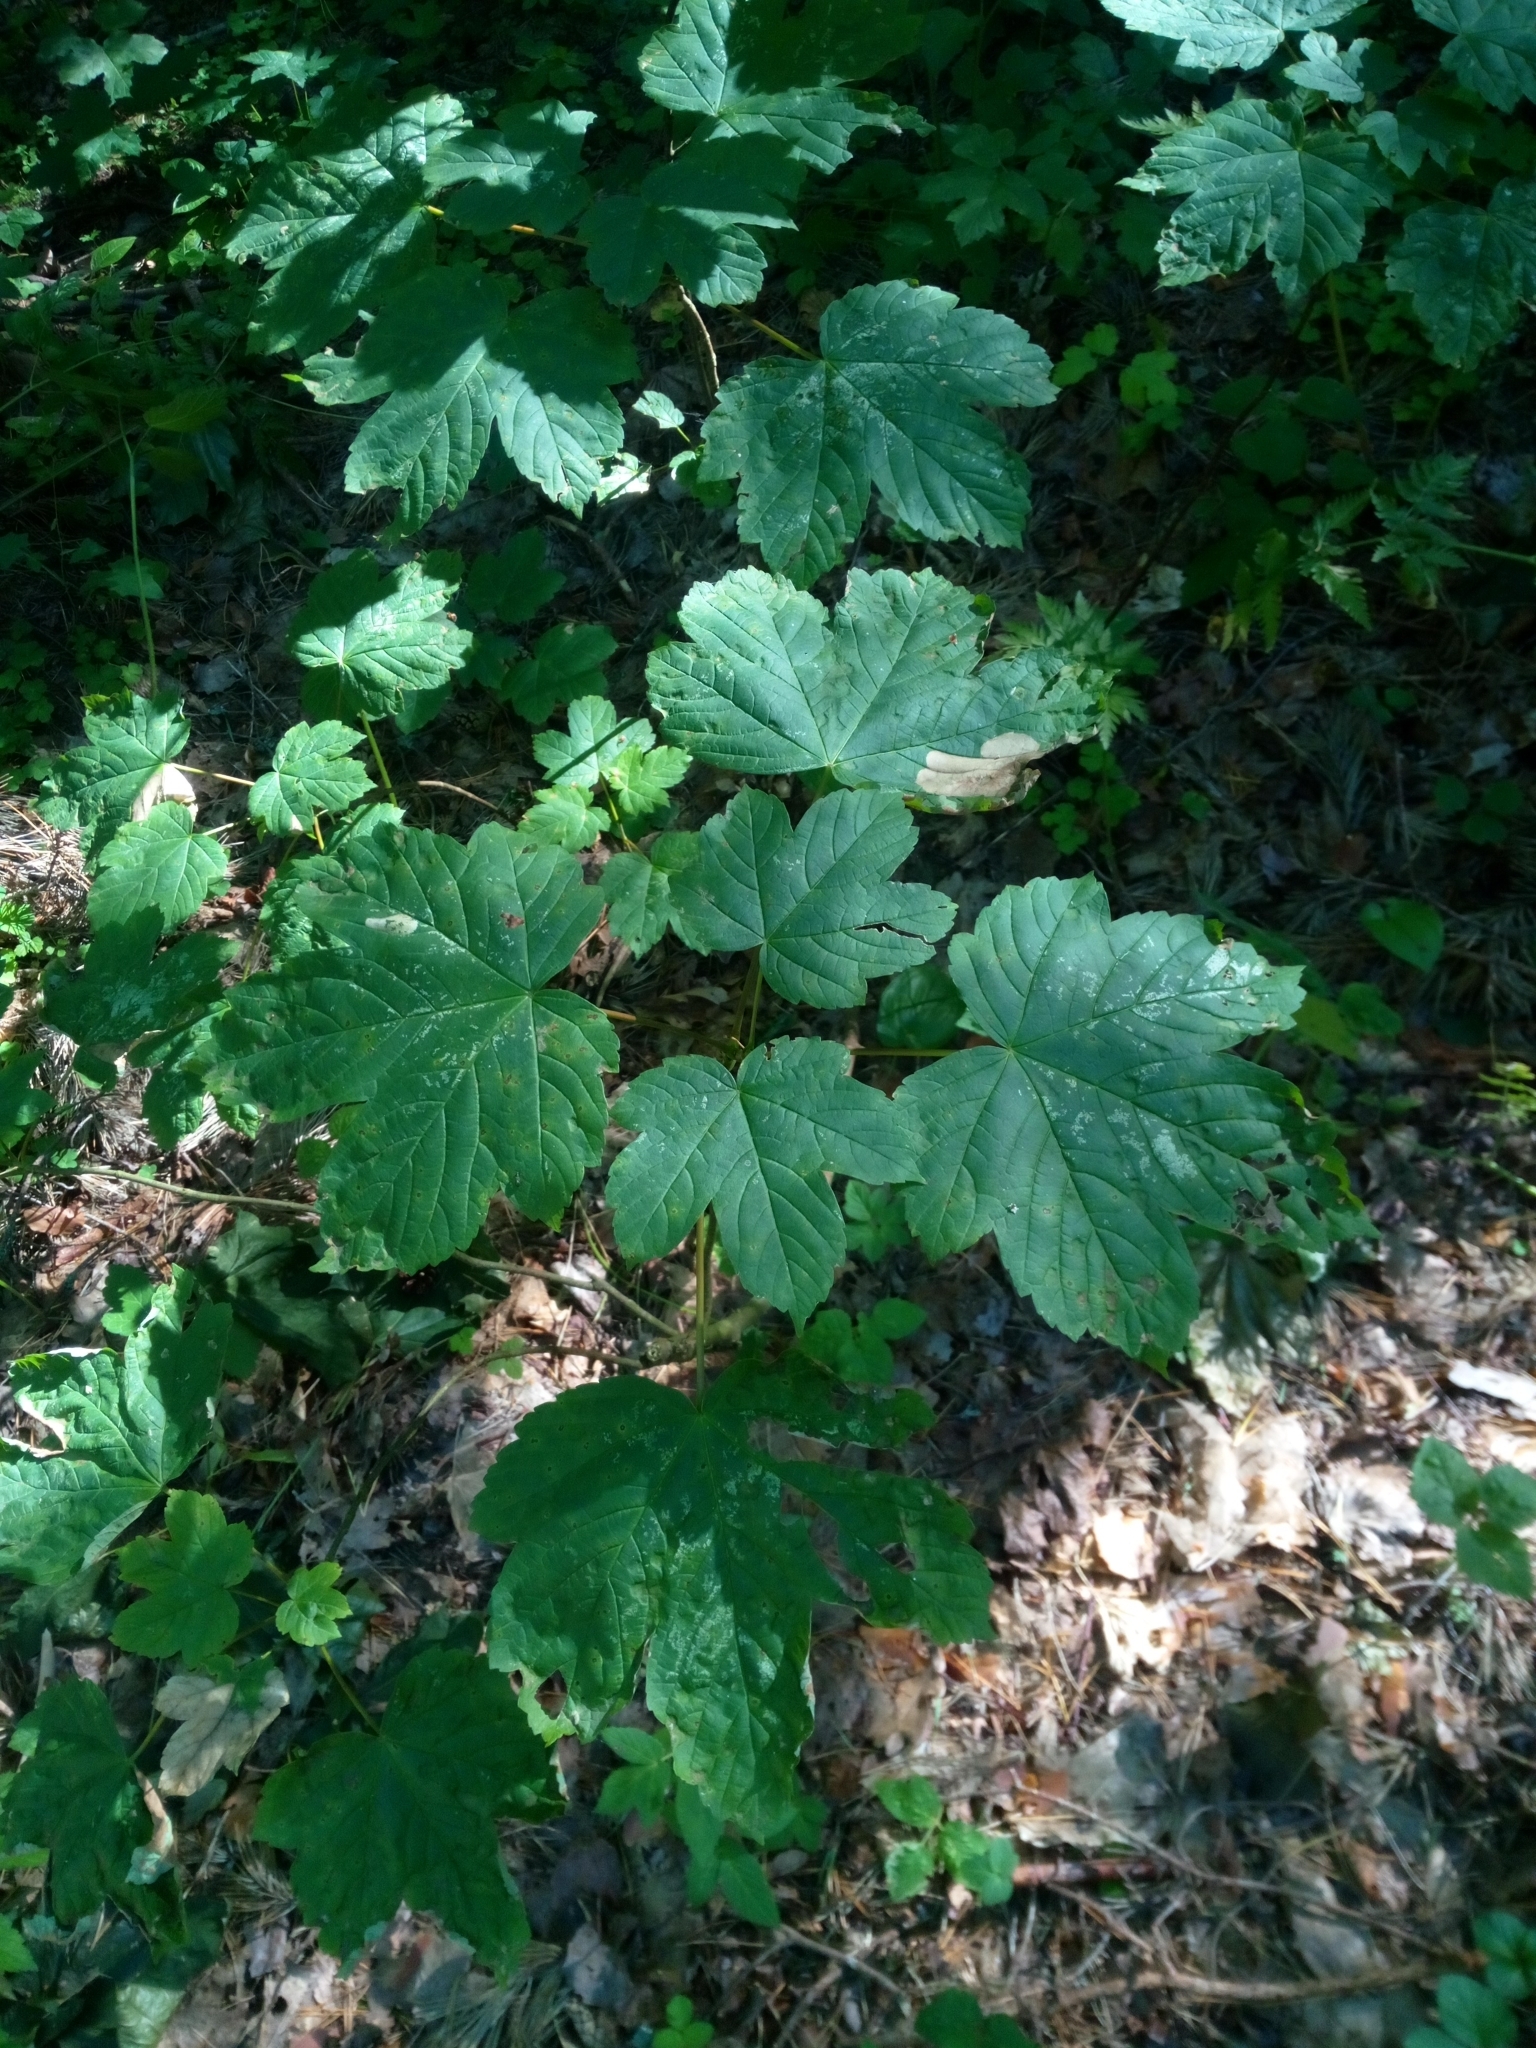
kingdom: Plantae
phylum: Tracheophyta
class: Magnoliopsida
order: Sapindales
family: Sapindaceae
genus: Acer
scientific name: Acer pseudoplatanus
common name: Sycamore
